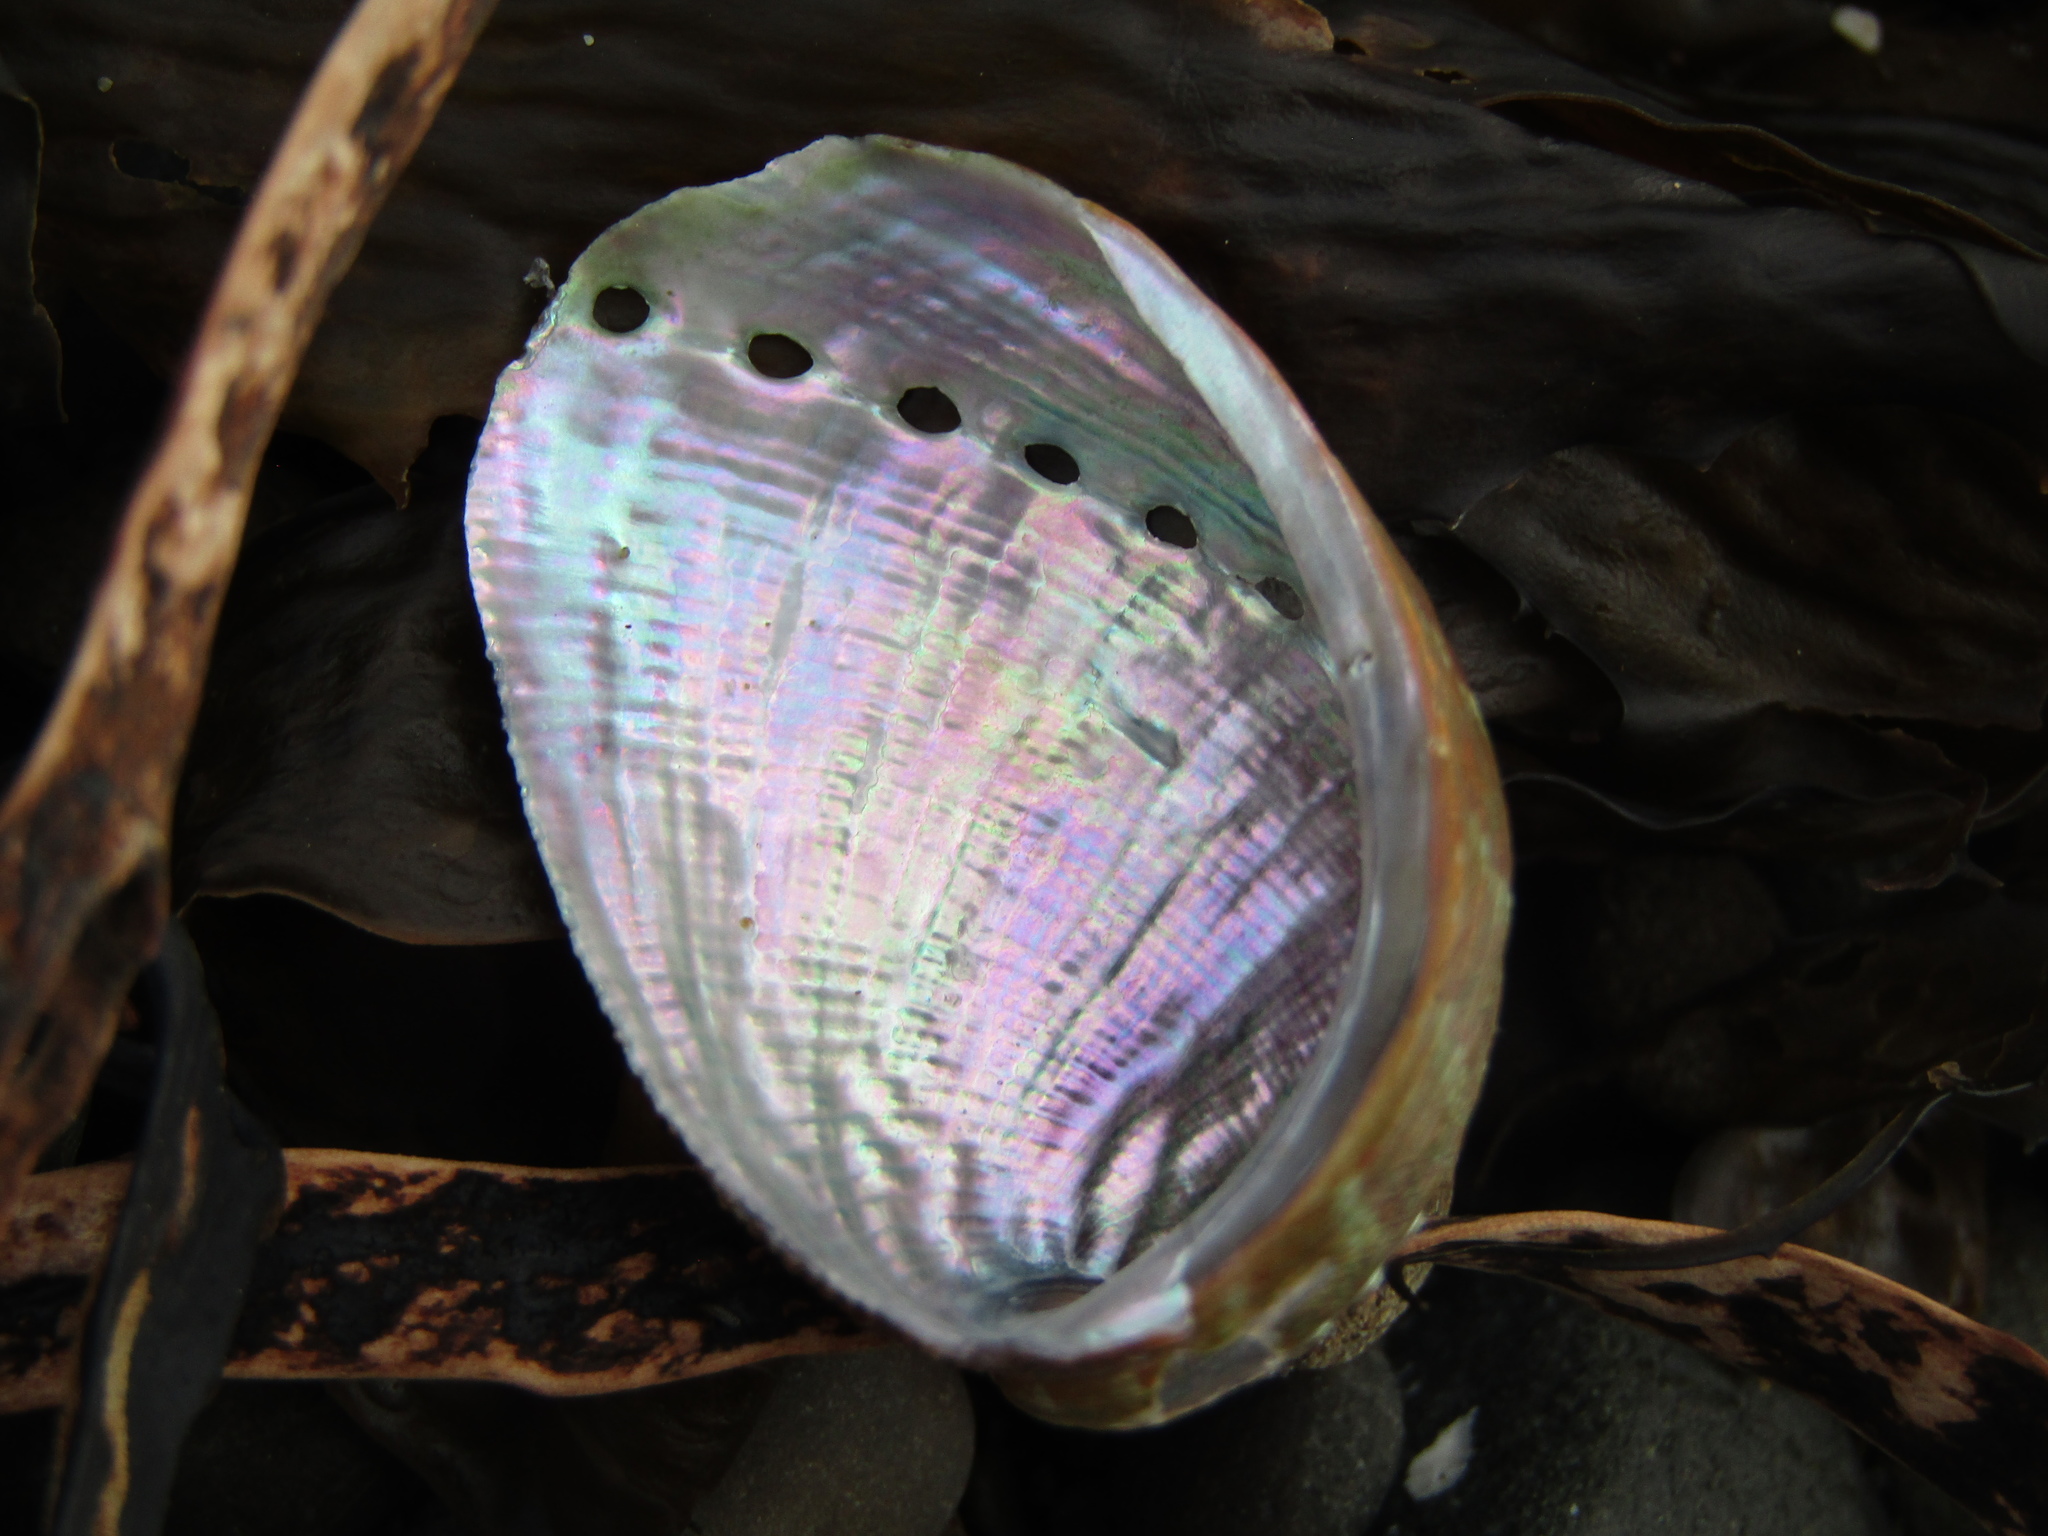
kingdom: Animalia
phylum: Mollusca
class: Gastropoda
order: Lepetellida
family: Haliotidae
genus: Haliotis
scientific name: Haliotis virginea
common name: Whitefoot paua
